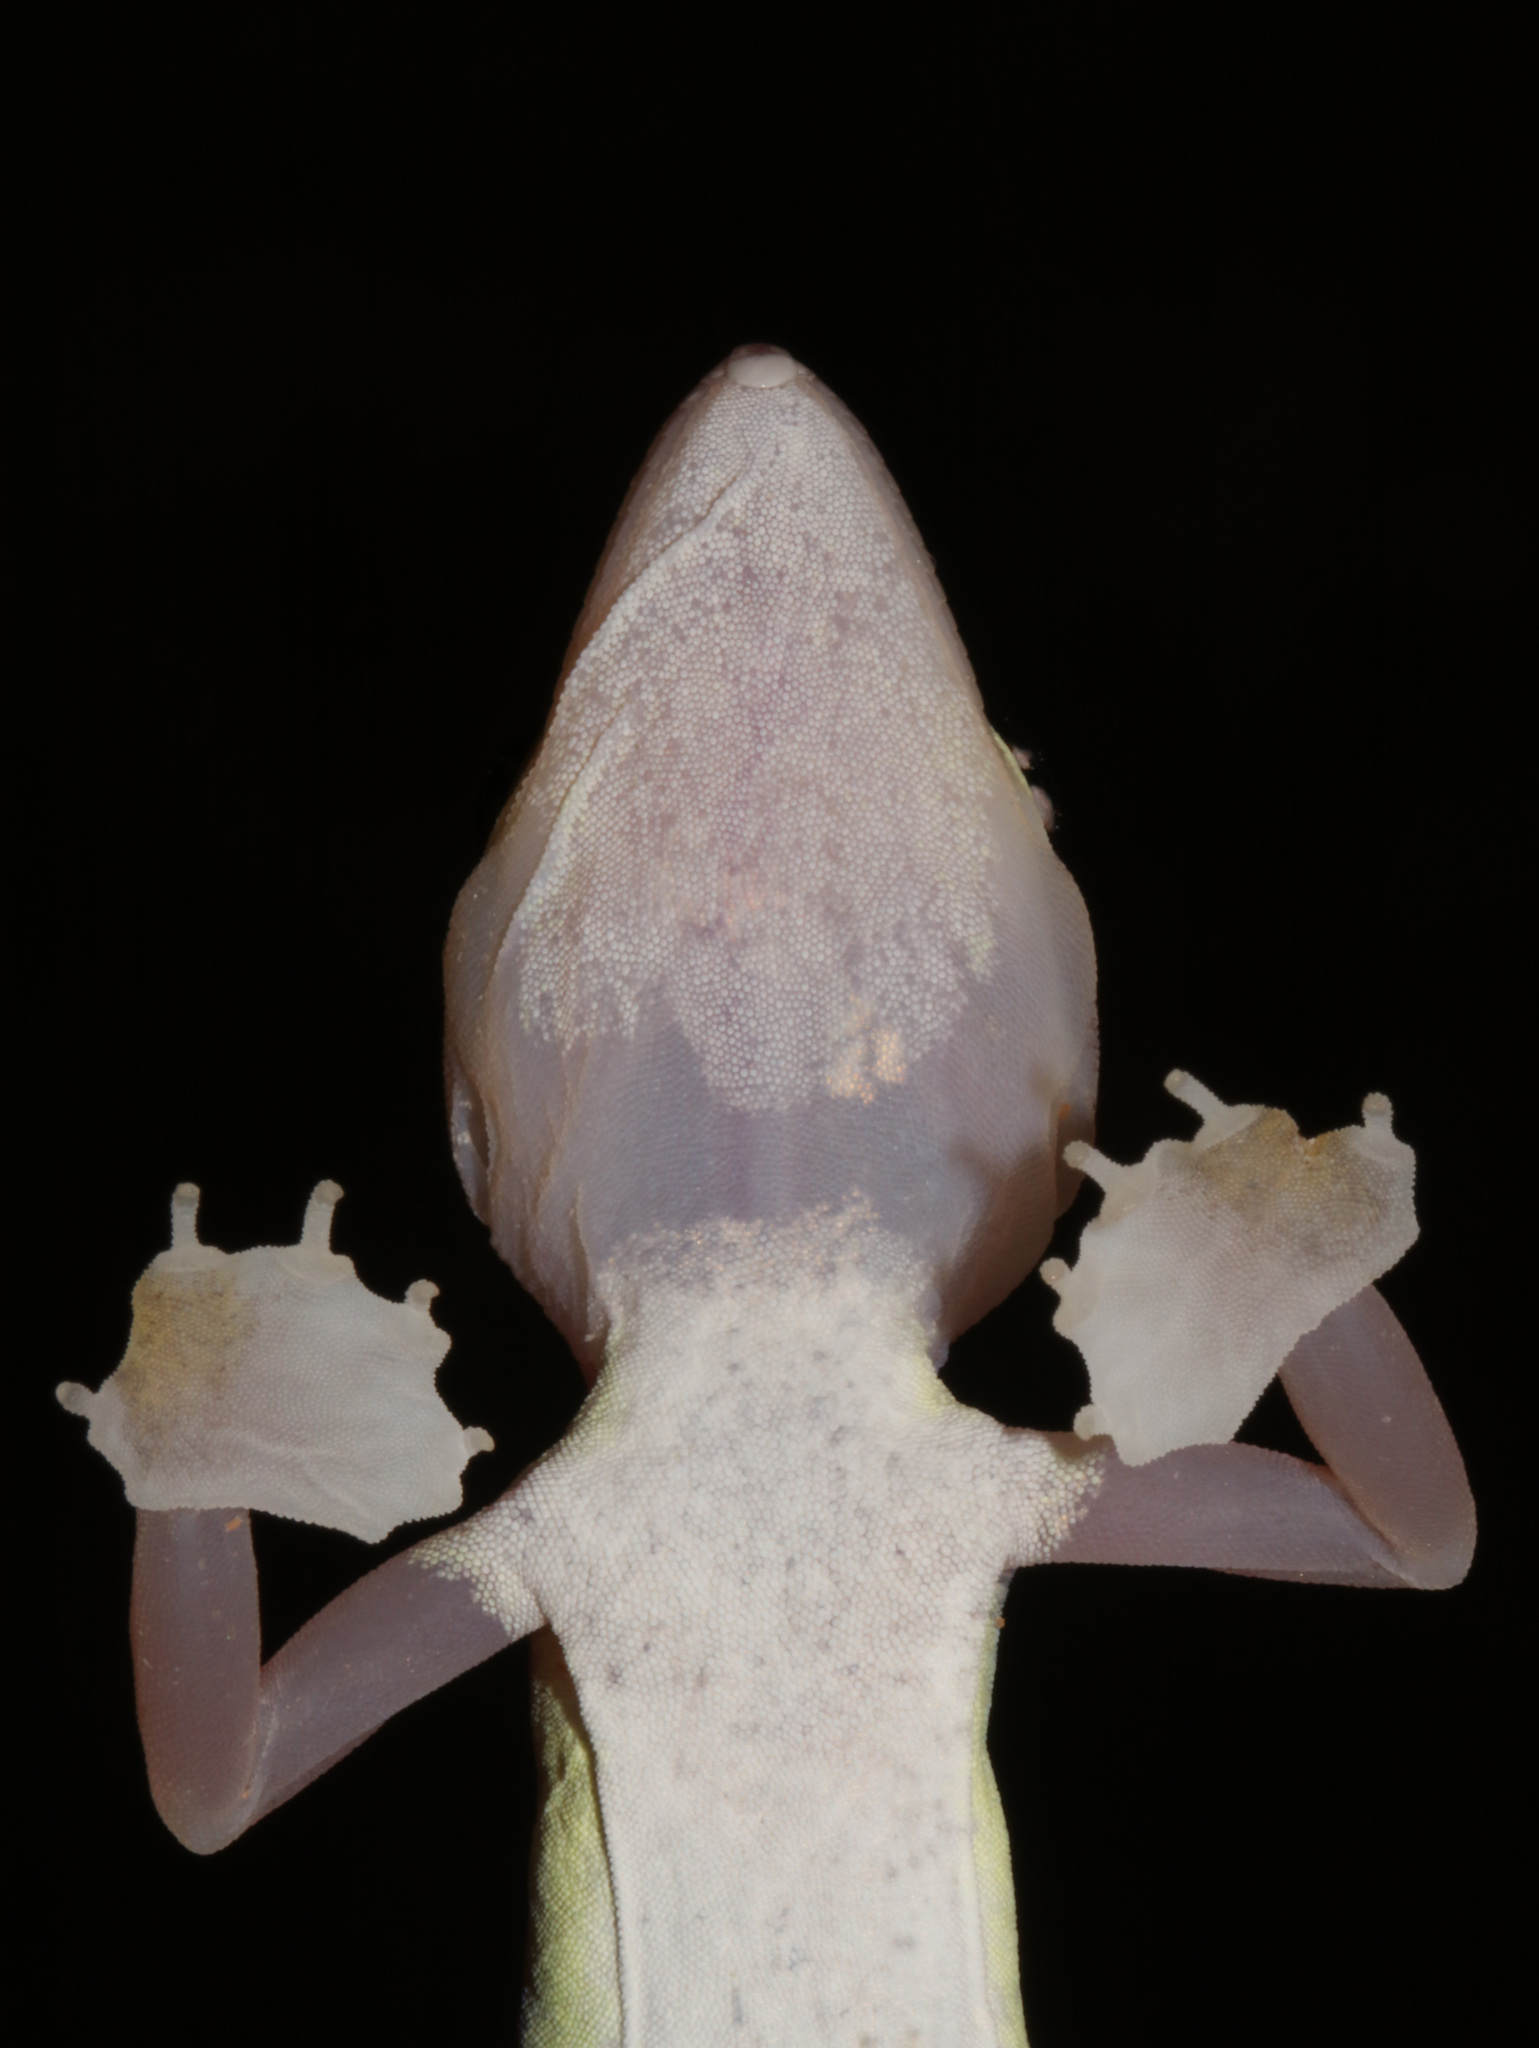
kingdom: Animalia
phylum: Chordata
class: Squamata
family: Gekkonidae
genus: Pachydactylus
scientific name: Pachydactylus rangei
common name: Namib sand gecko
